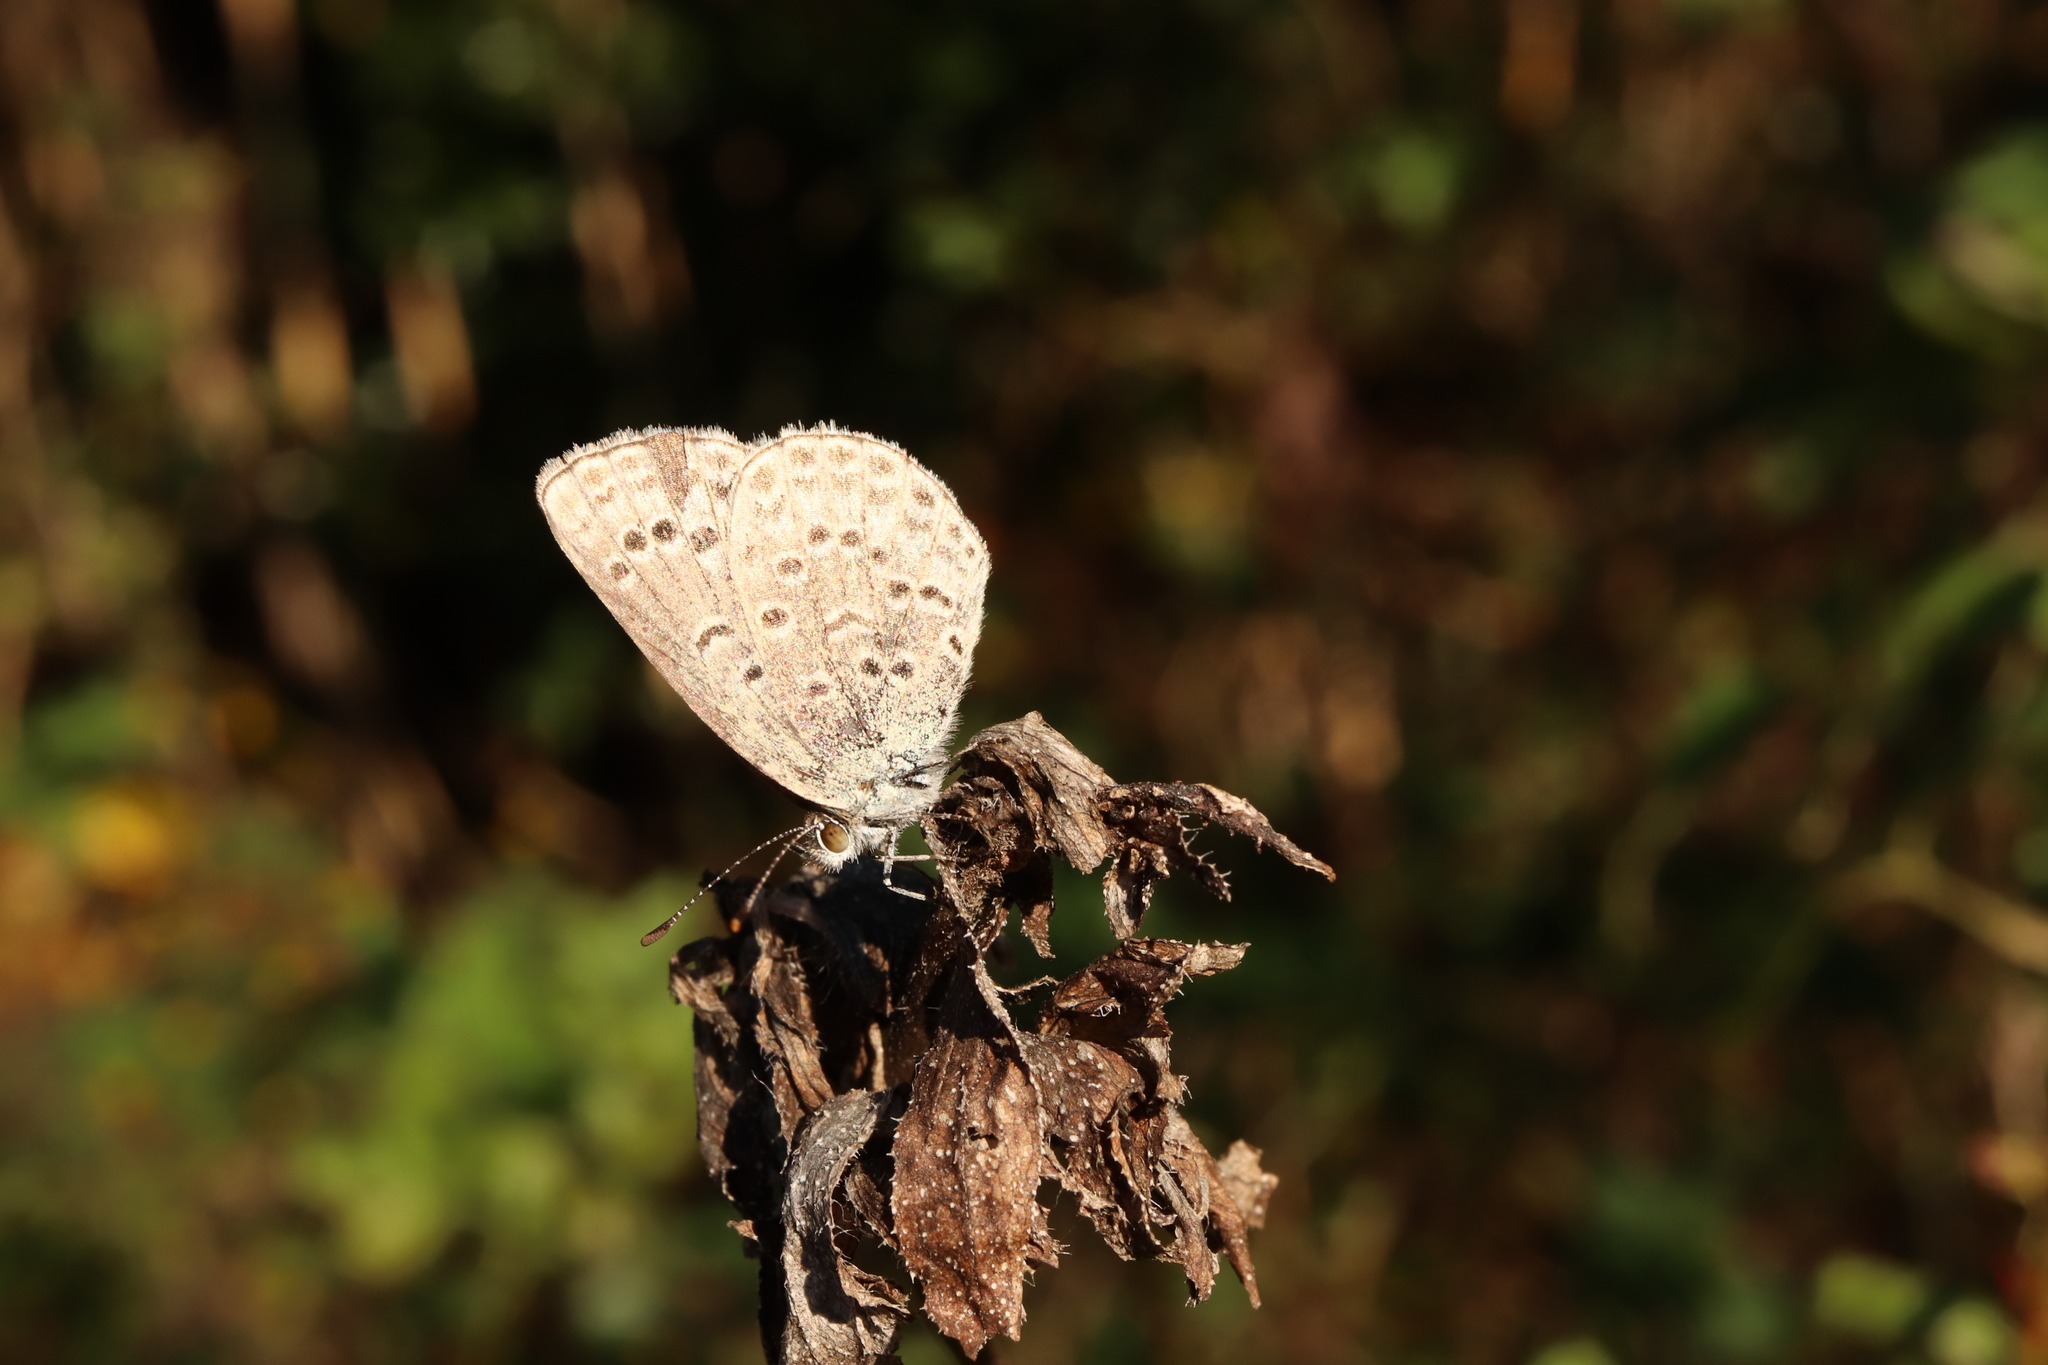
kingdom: Animalia
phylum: Arthropoda
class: Insecta
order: Lepidoptera
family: Lycaenidae
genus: Pseudozizeeria
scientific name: Pseudozizeeria maha
